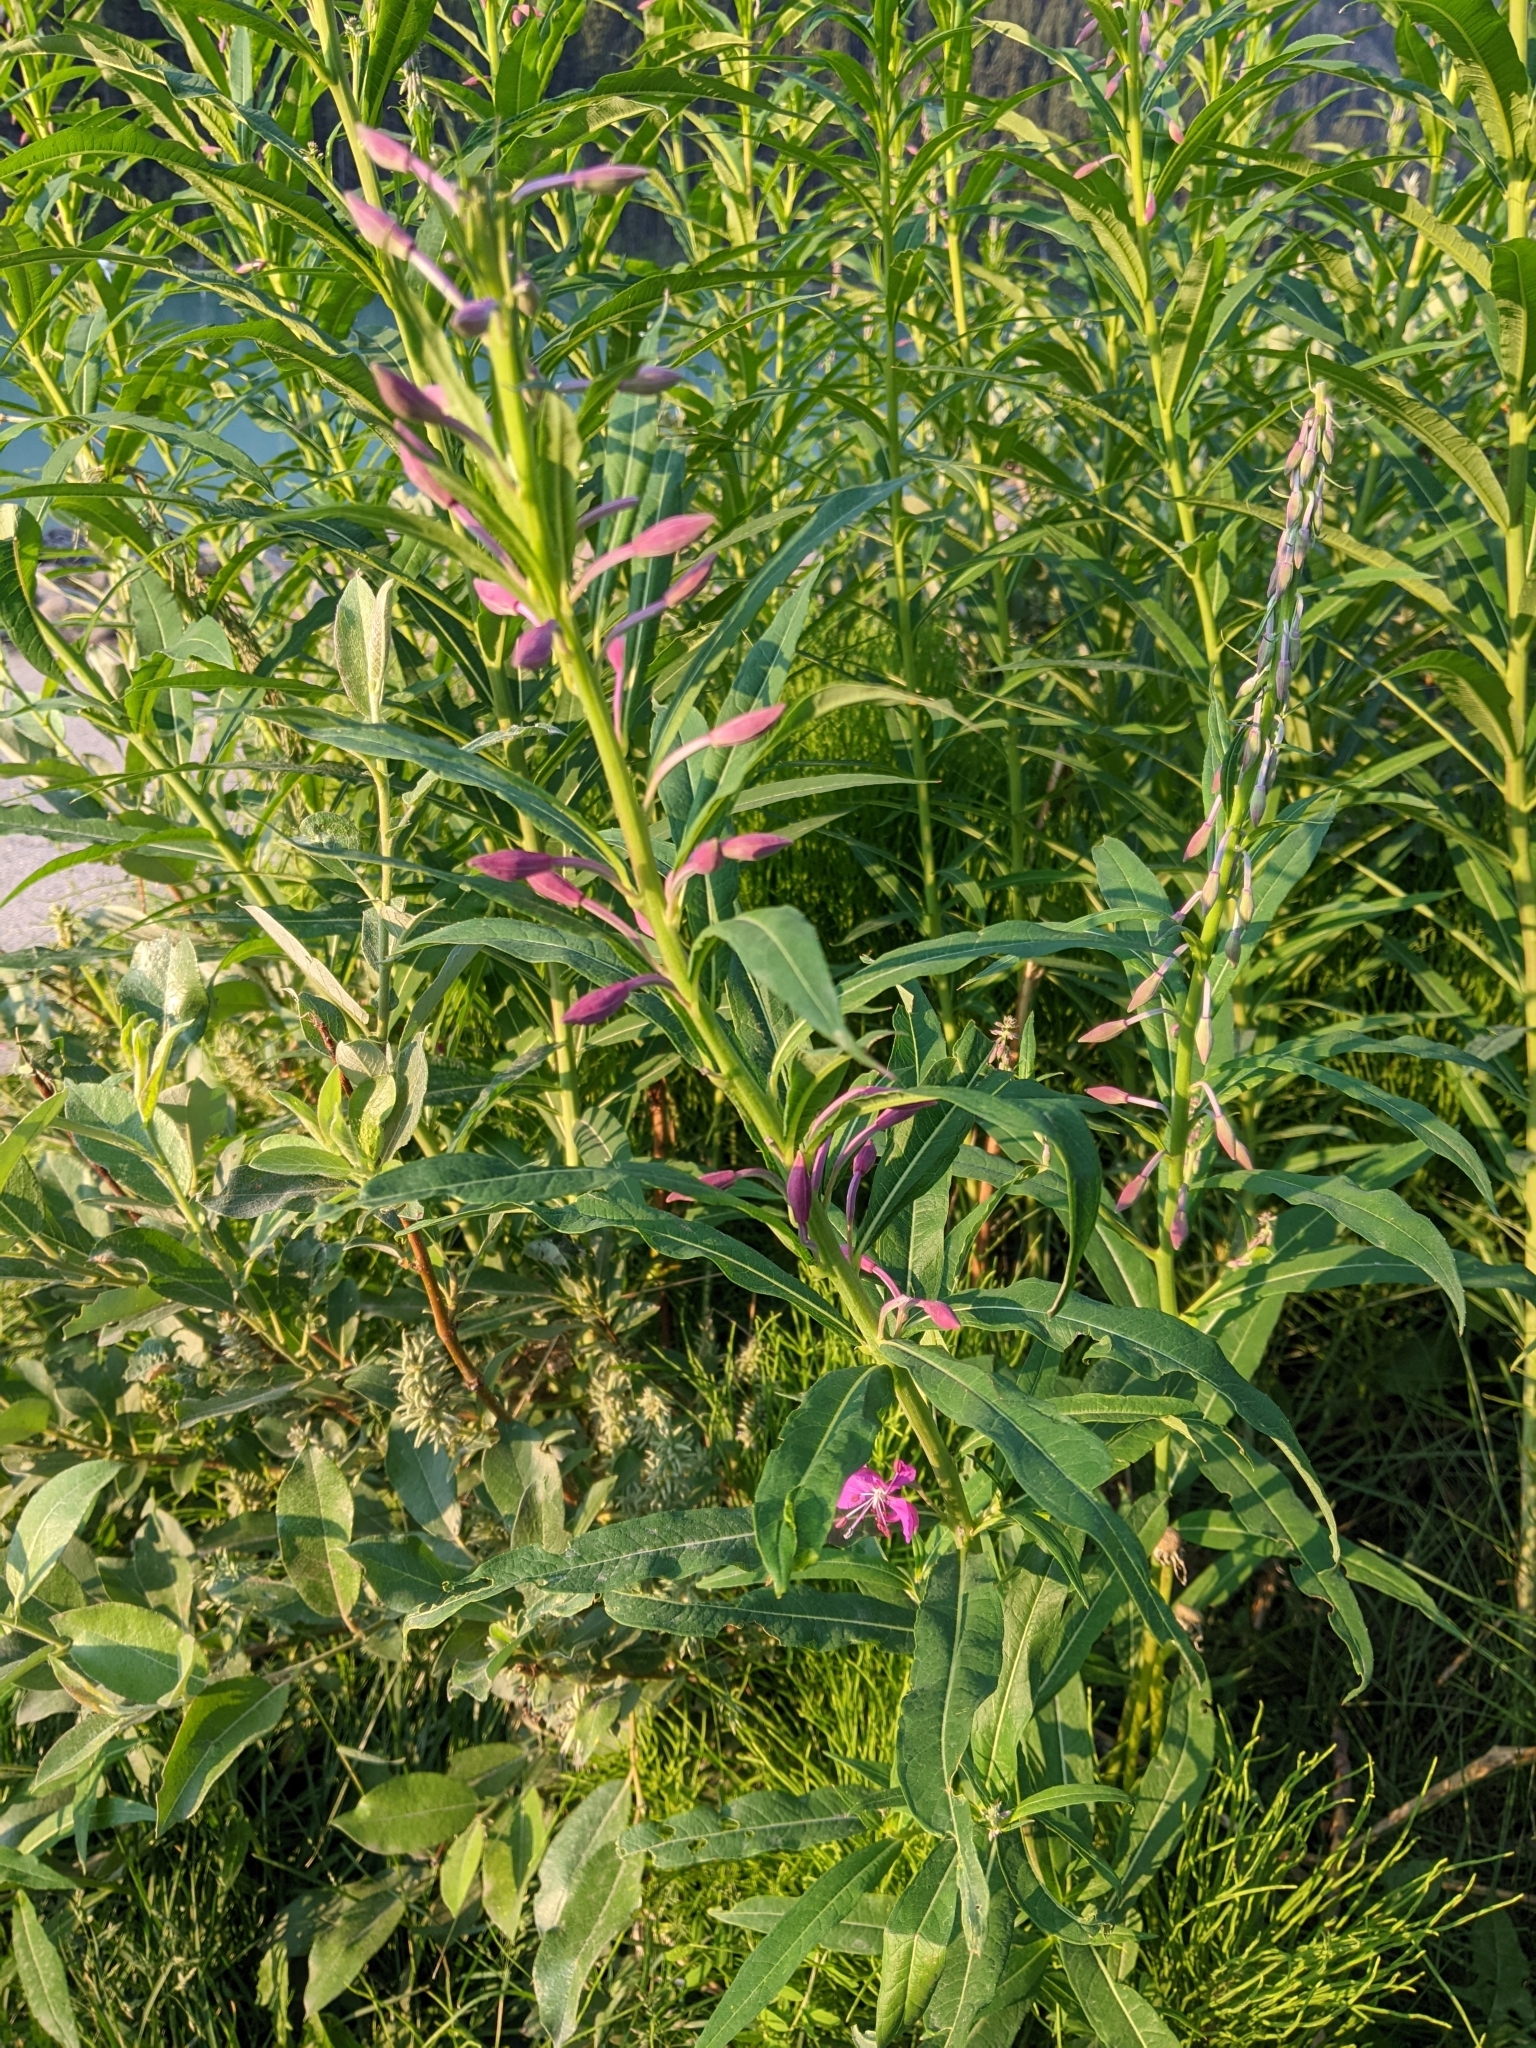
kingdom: Plantae
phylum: Tracheophyta
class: Magnoliopsida
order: Myrtales
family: Onagraceae
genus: Chamaenerion
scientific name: Chamaenerion angustifolium
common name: Fireweed
